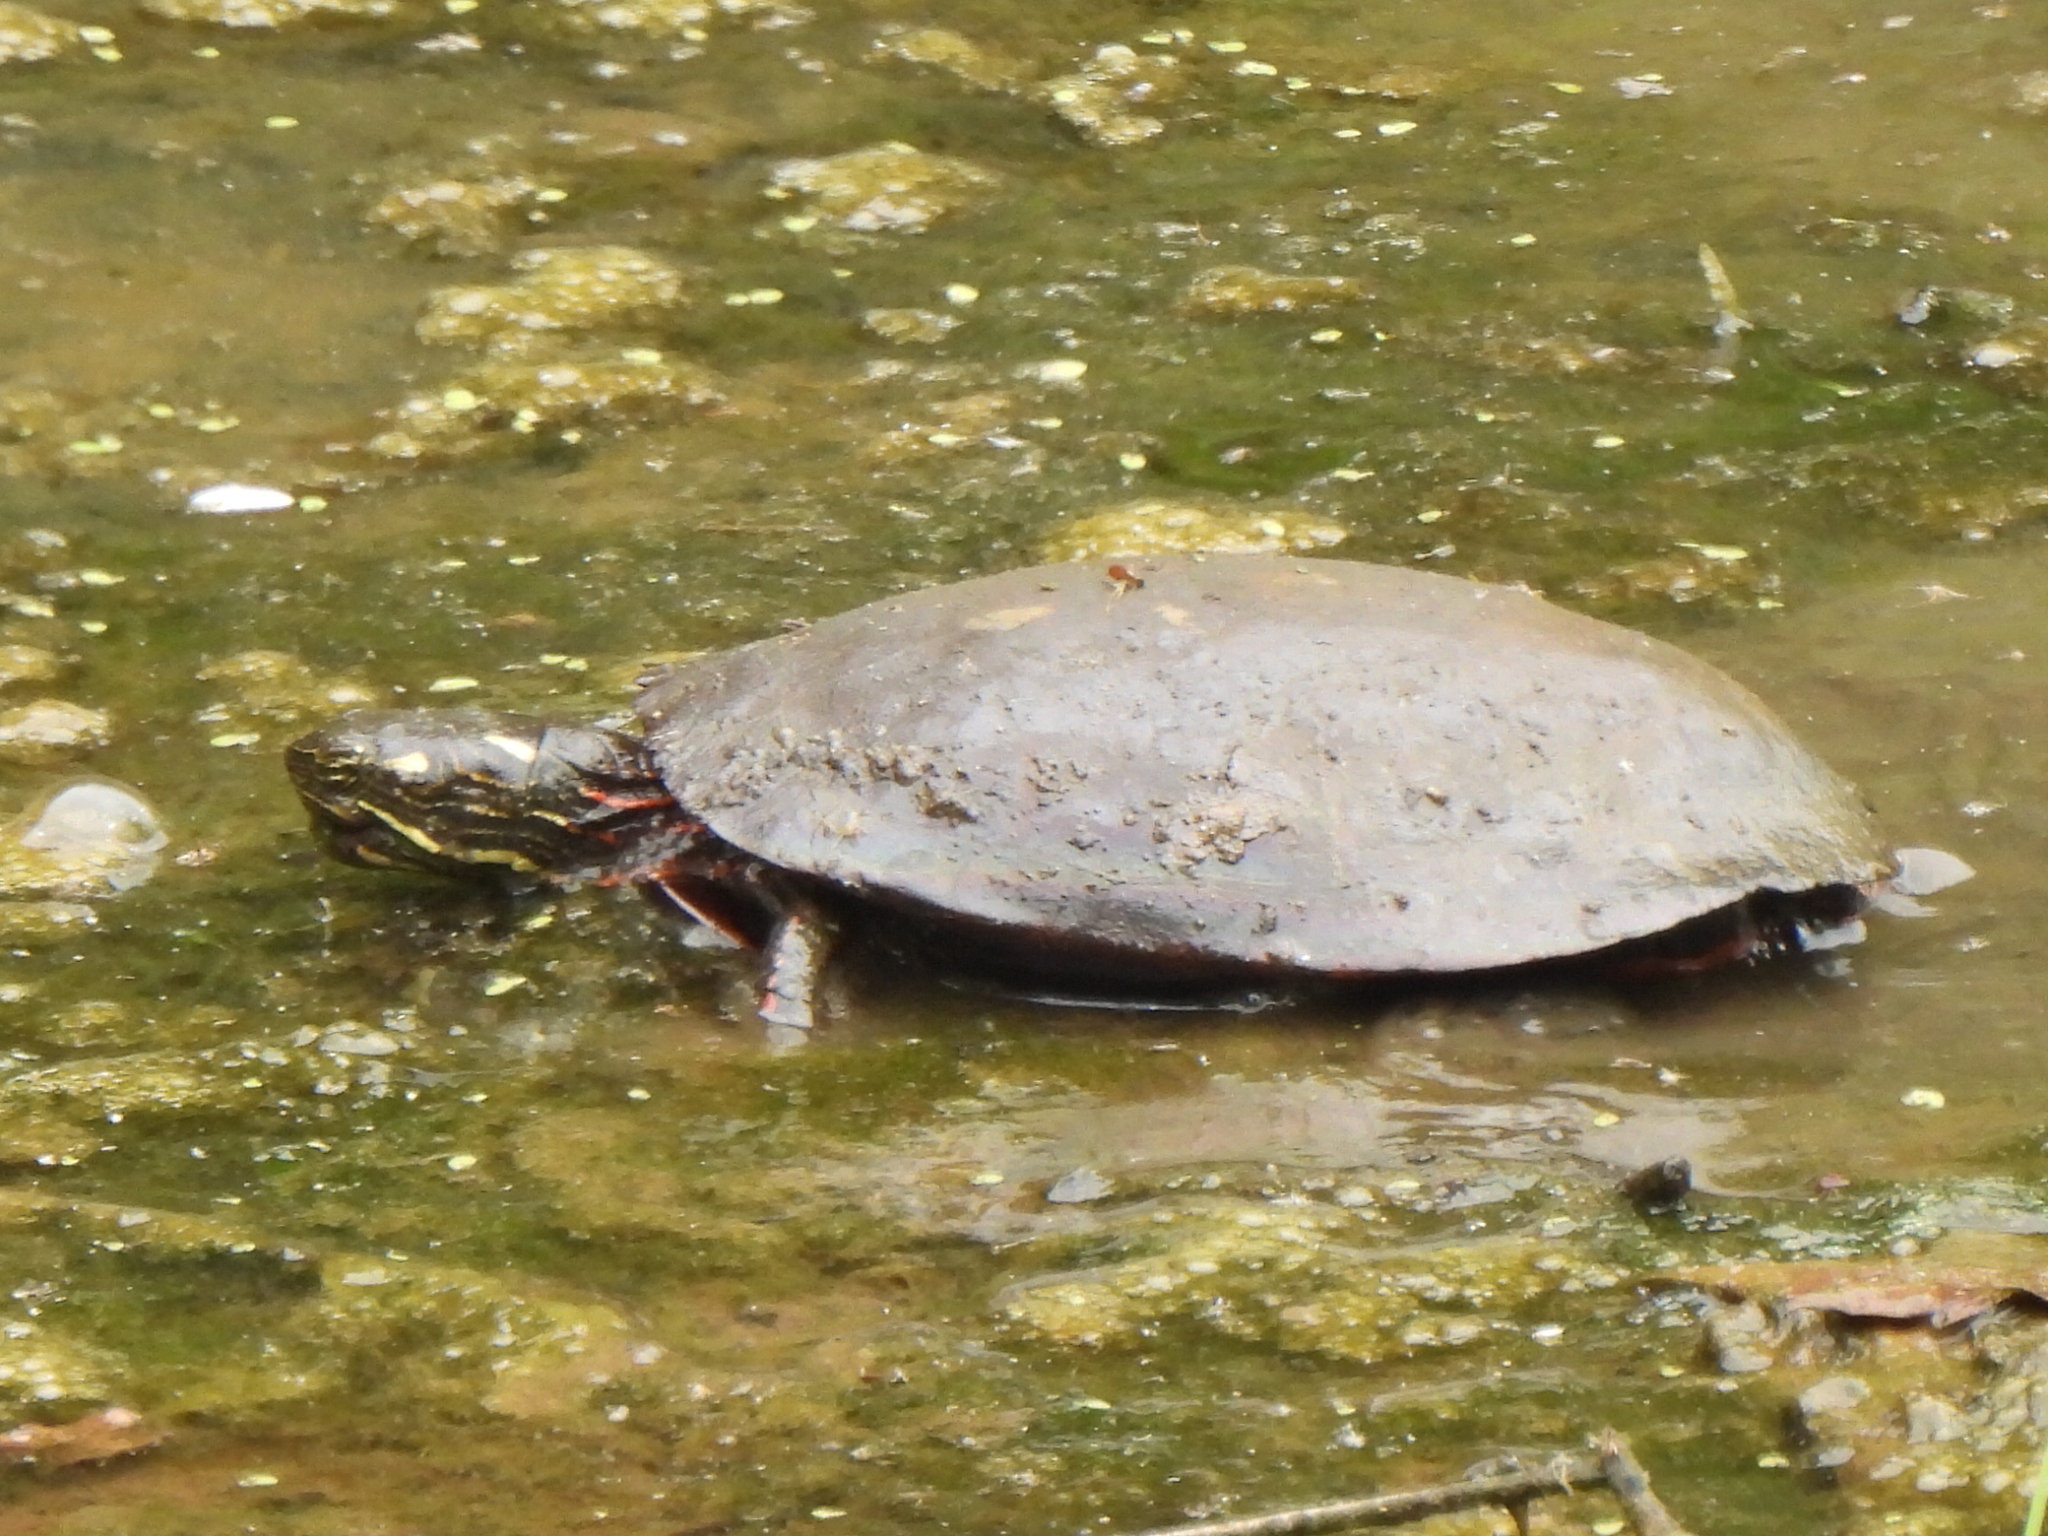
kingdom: Animalia
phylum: Chordata
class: Testudines
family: Emydidae
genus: Chrysemys
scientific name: Chrysemys picta
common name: Painted turtle
